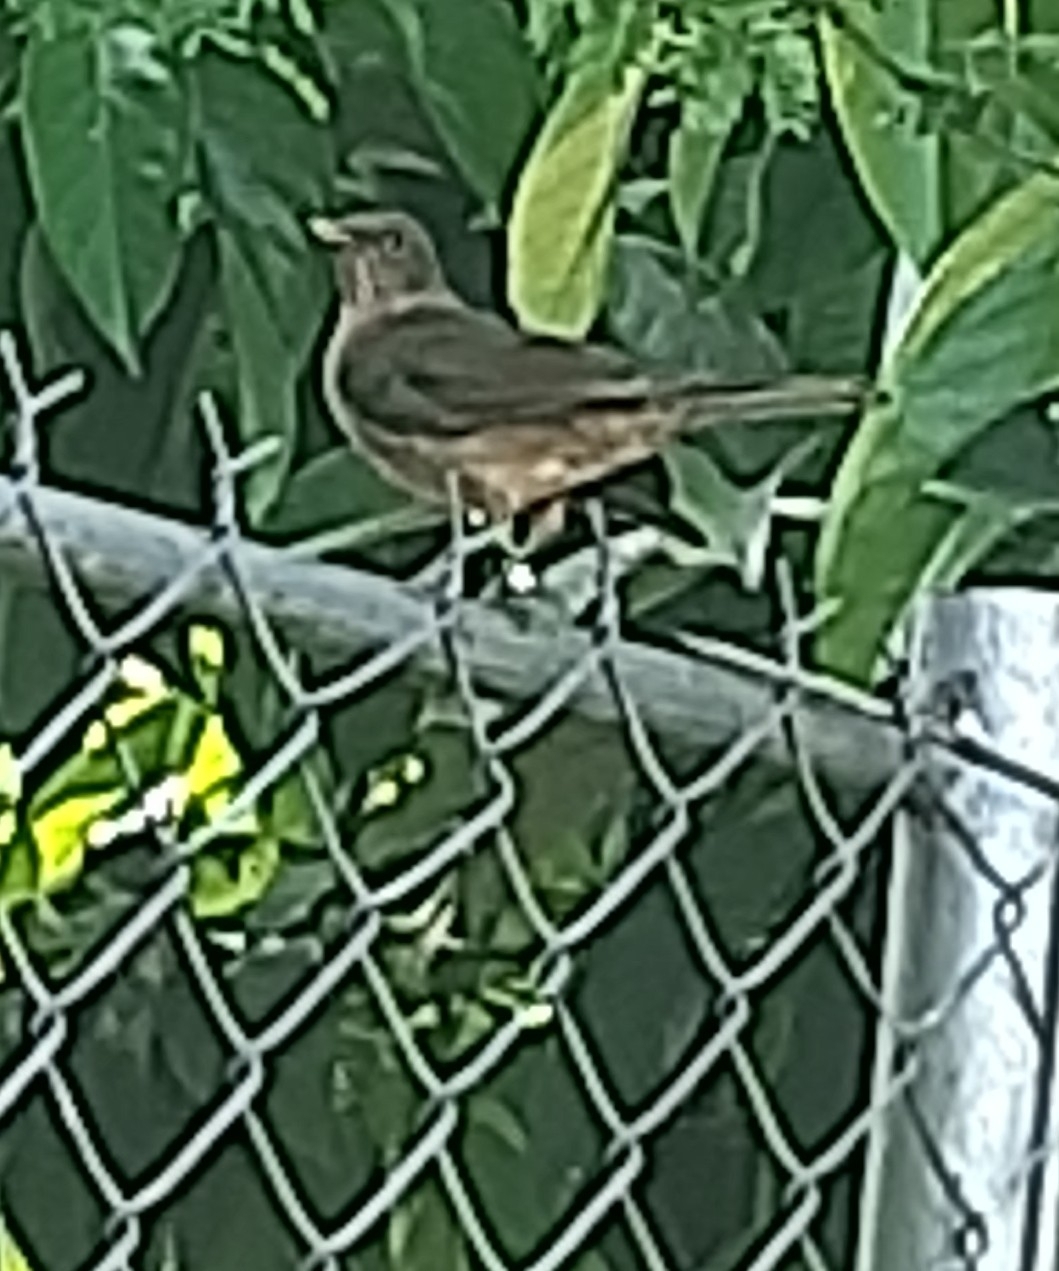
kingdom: Animalia
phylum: Chordata
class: Aves
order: Passeriformes
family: Turdidae
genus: Turdus
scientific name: Turdus grayi
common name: Clay-colored thrush
